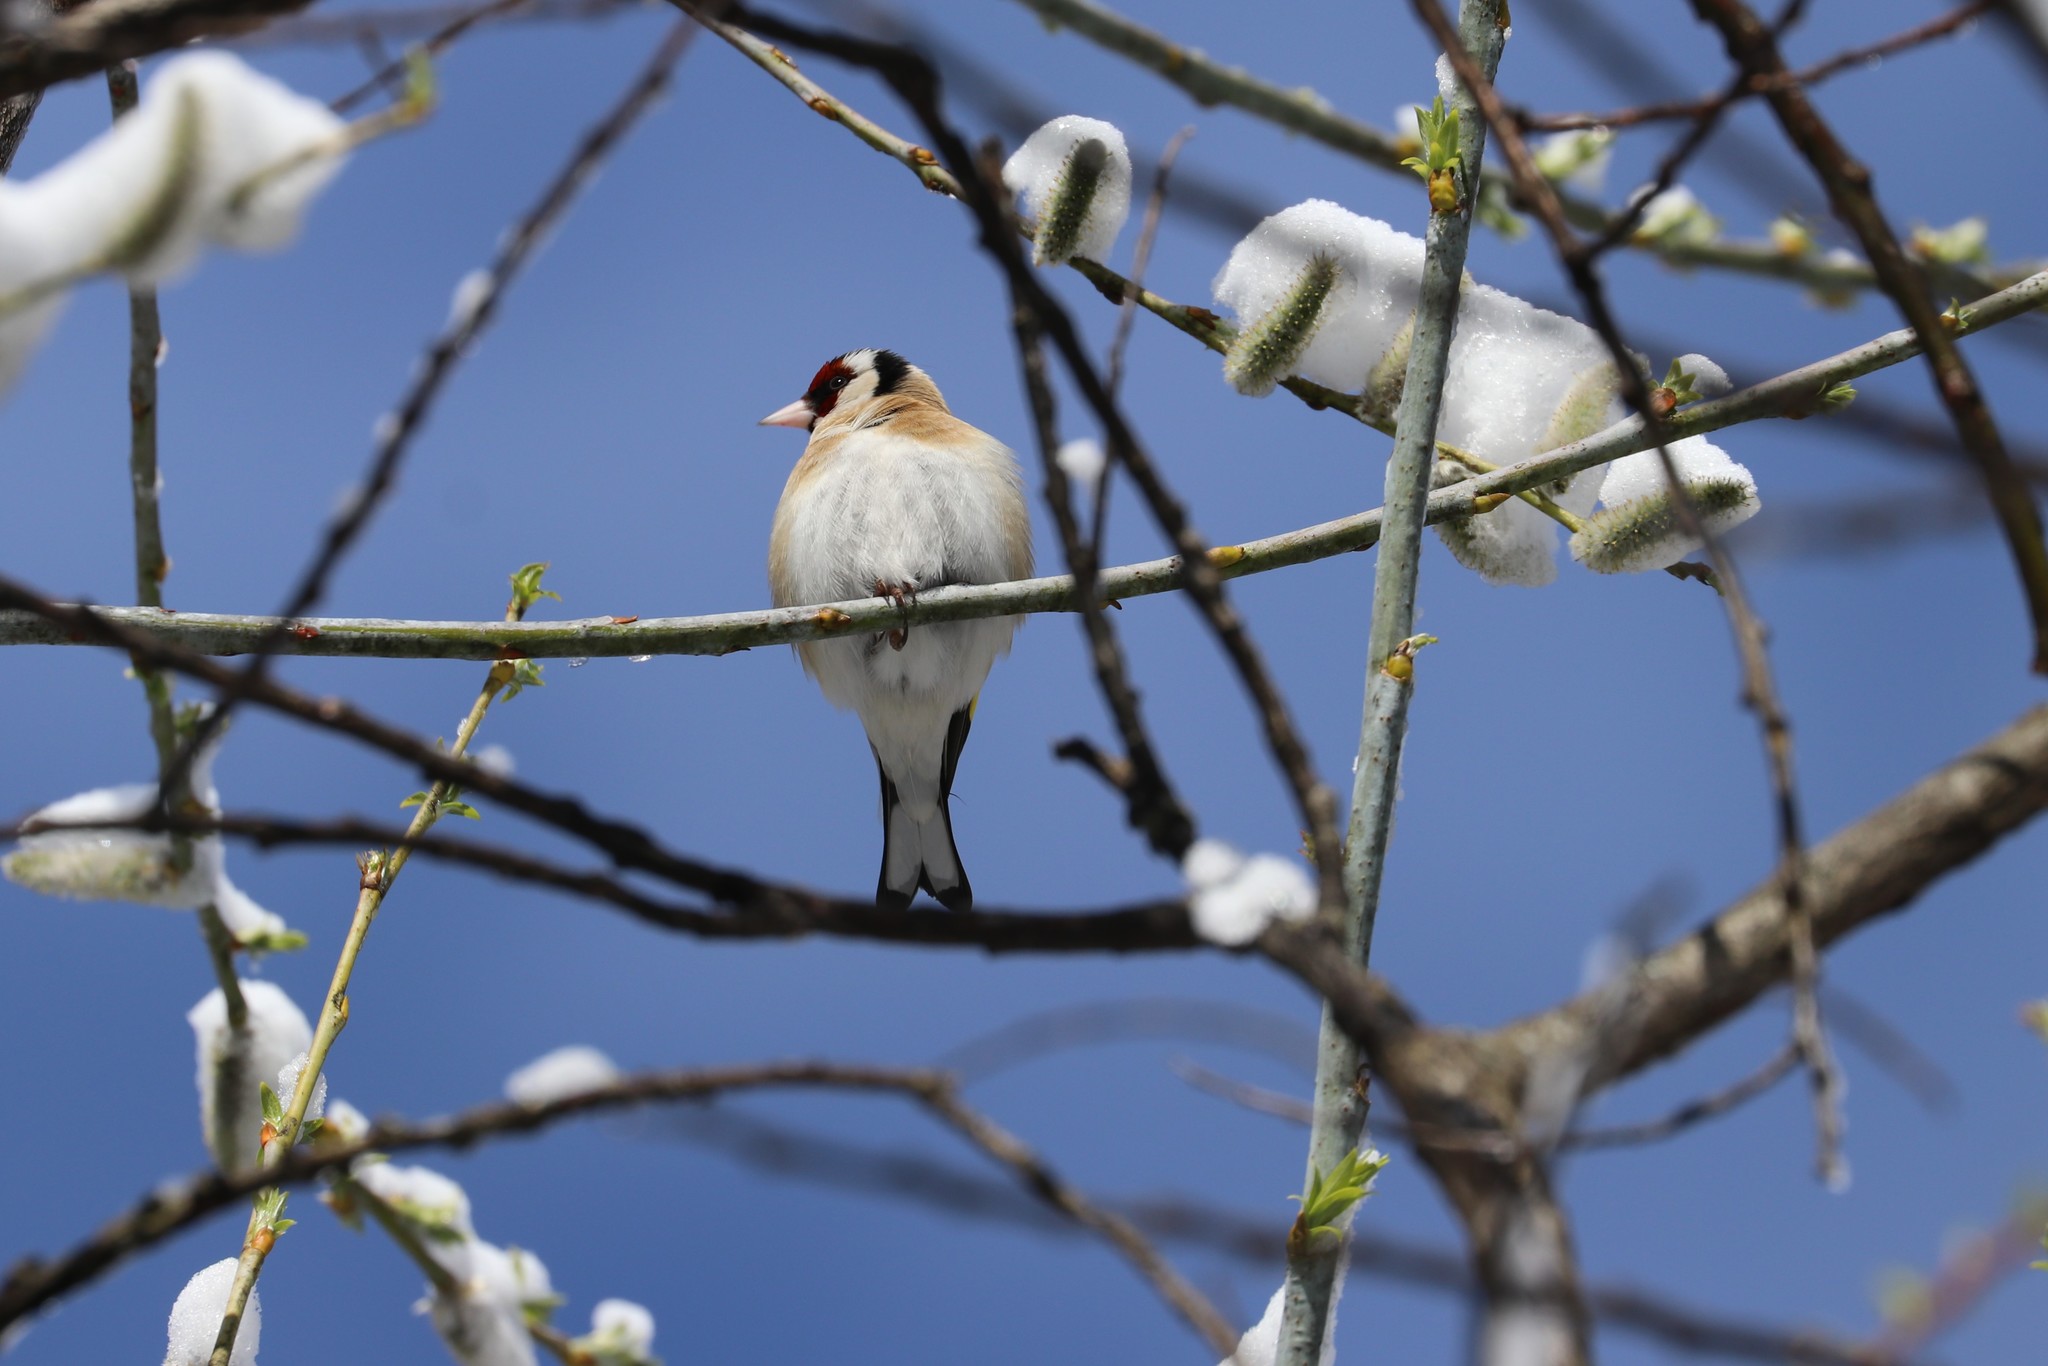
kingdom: Animalia
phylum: Chordata
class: Aves
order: Passeriformes
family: Fringillidae
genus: Carduelis
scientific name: Carduelis carduelis
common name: European goldfinch
